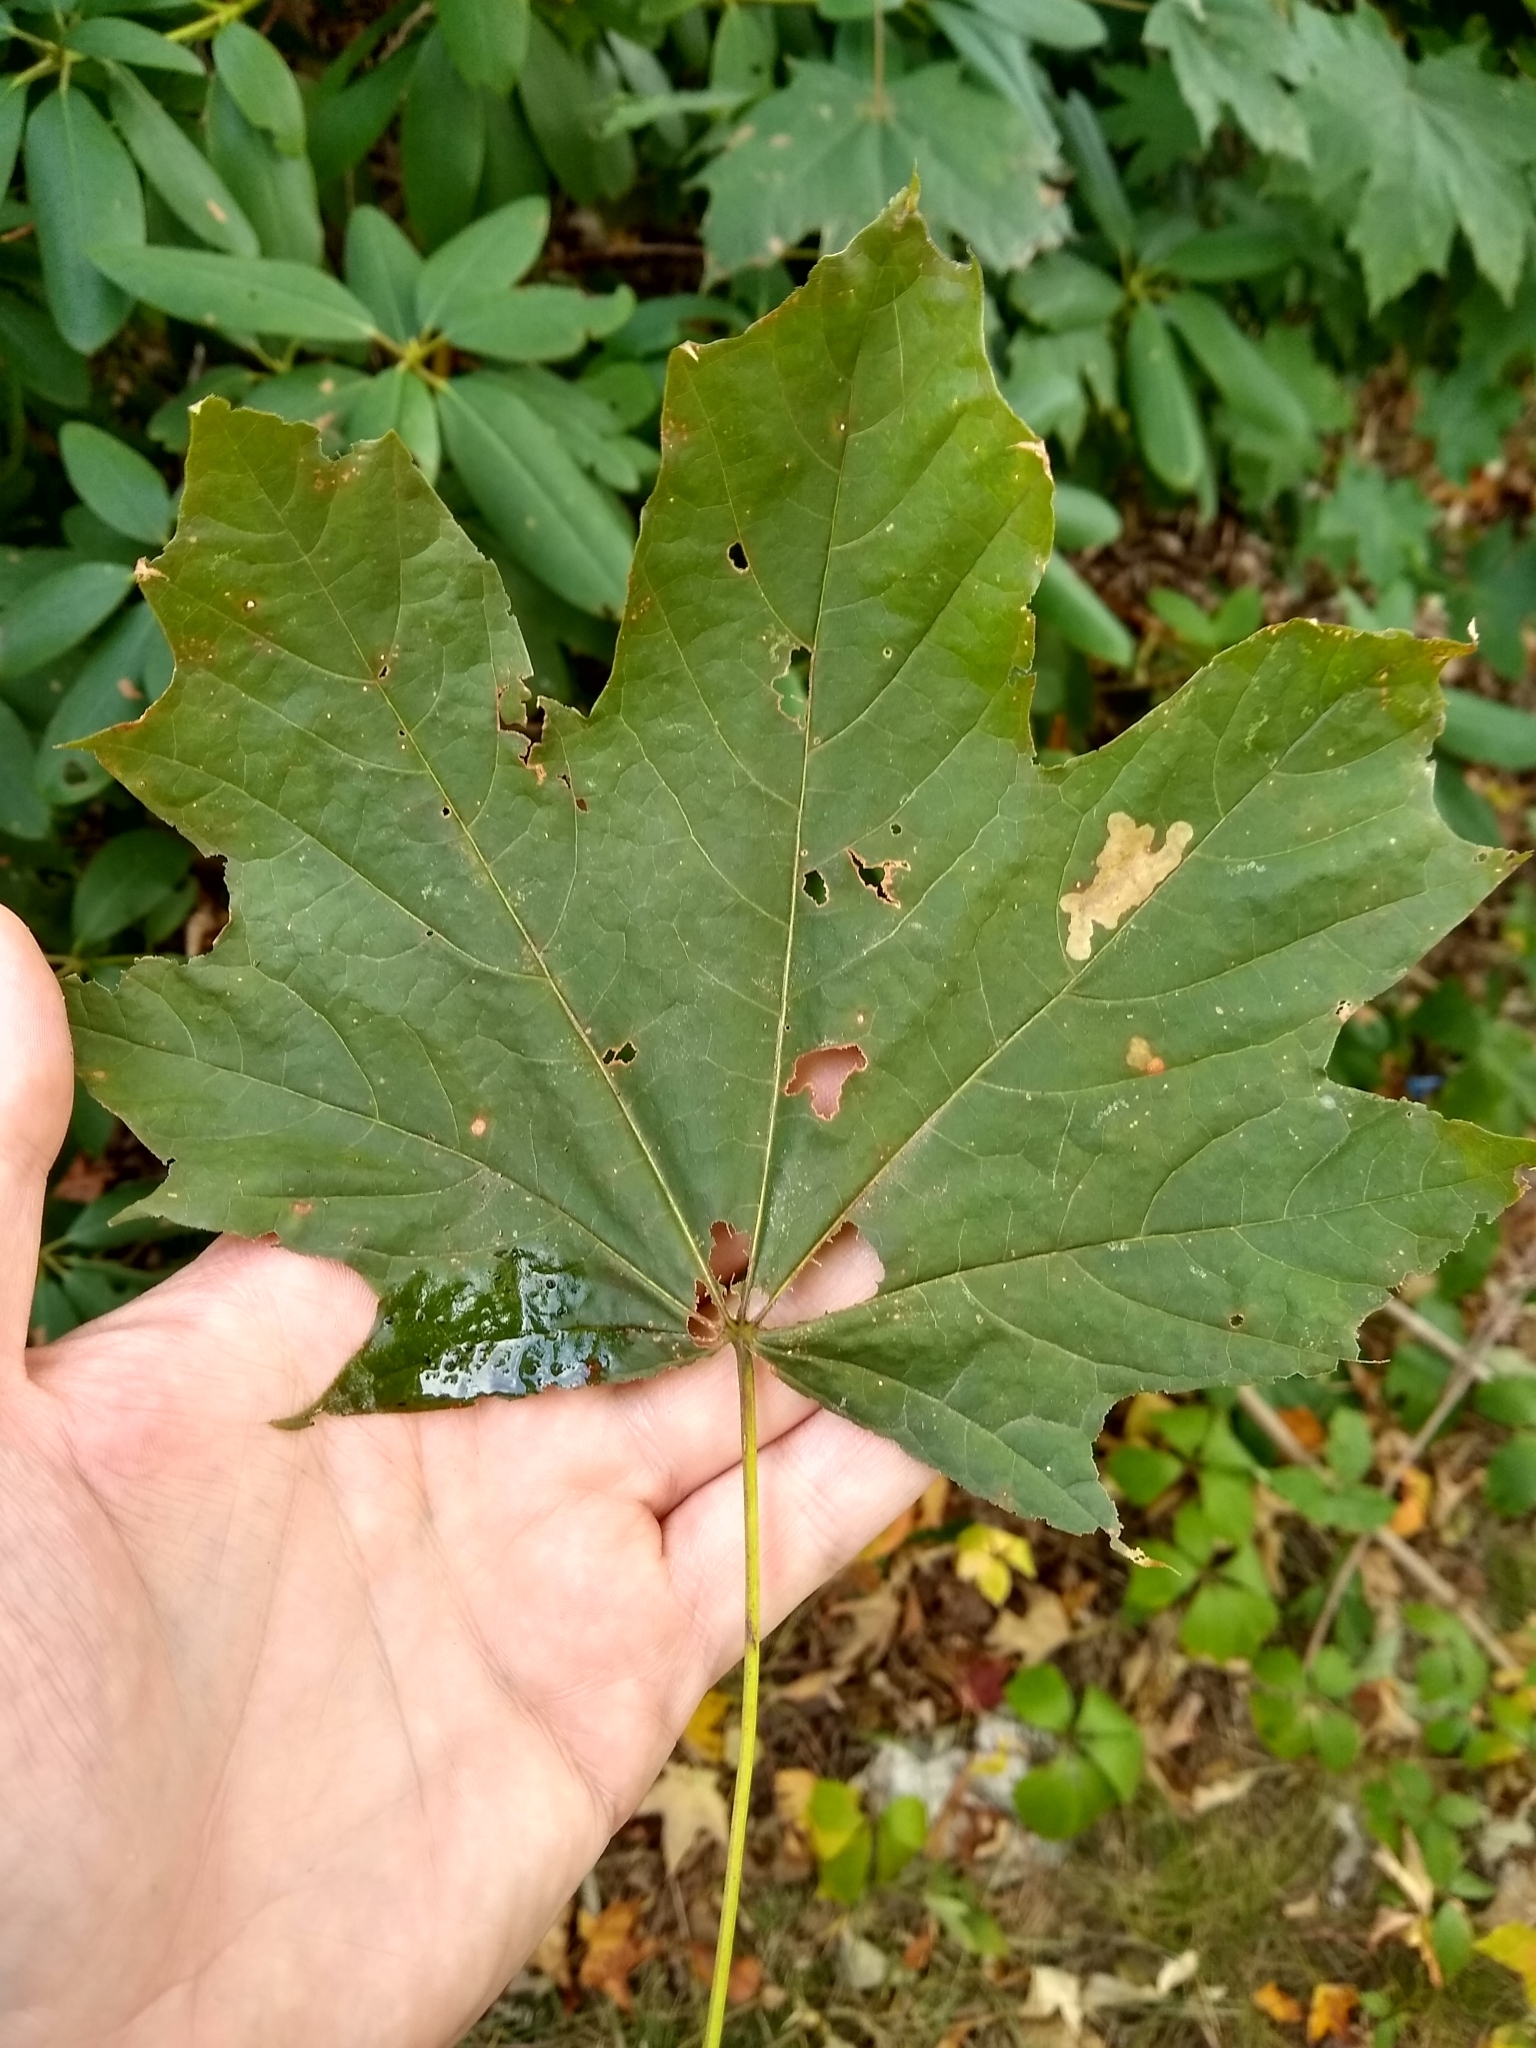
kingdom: Plantae
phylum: Tracheophyta
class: Magnoliopsida
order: Sapindales
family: Sapindaceae
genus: Acer
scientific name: Acer platanoides
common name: Norway maple
